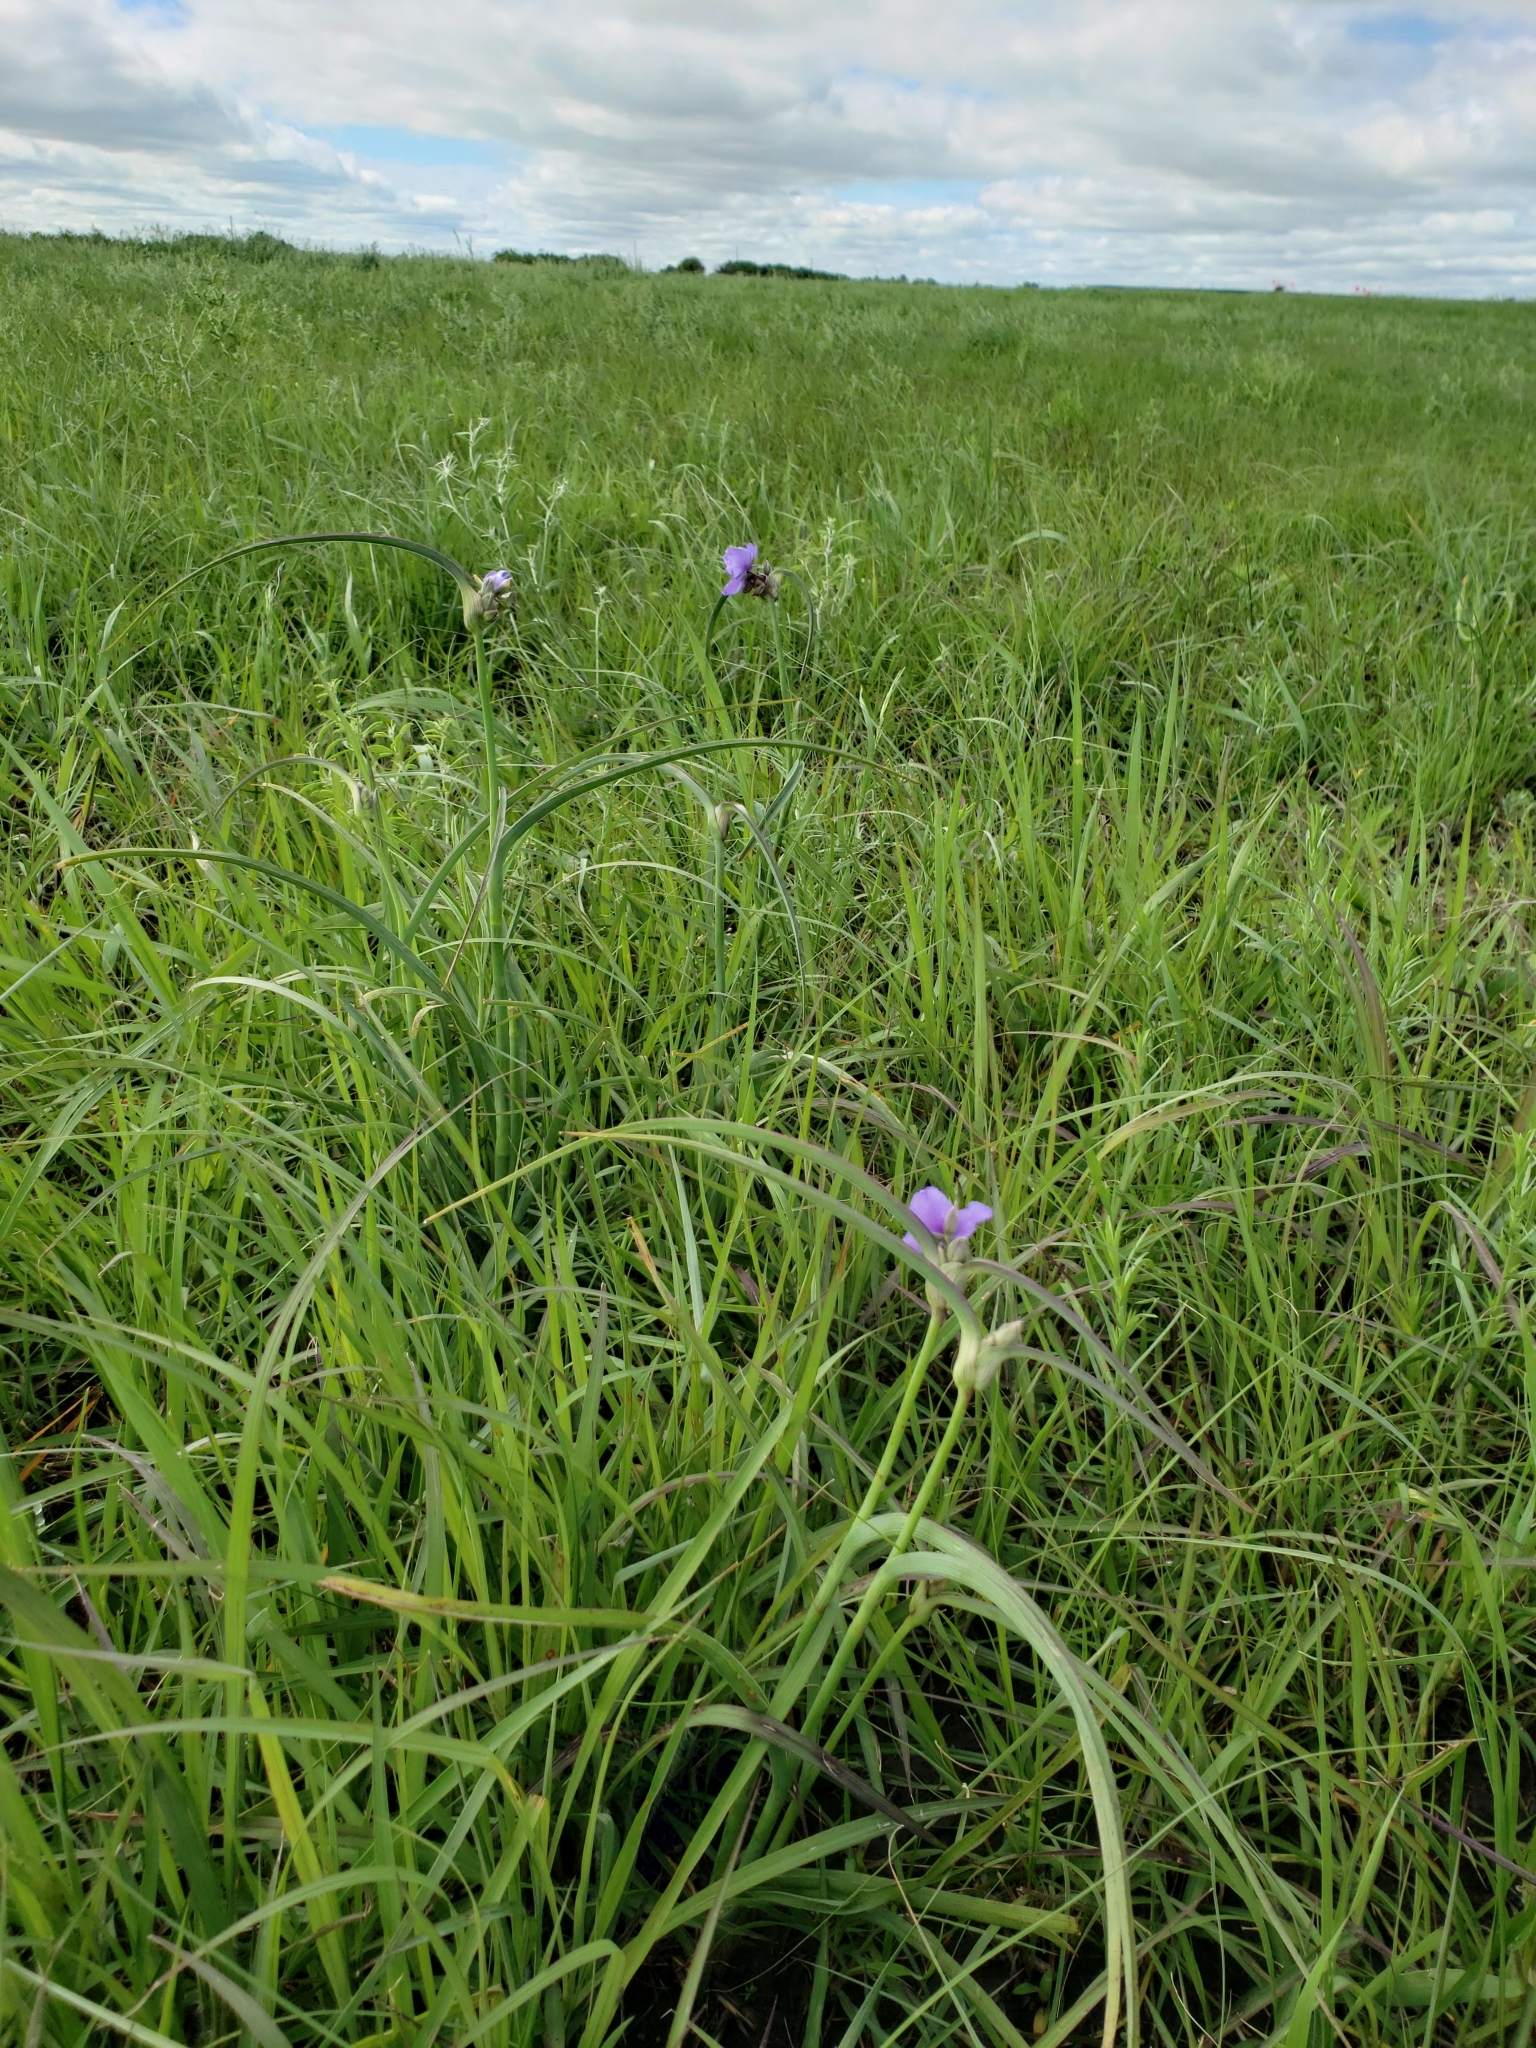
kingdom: Plantae
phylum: Tracheophyta
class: Liliopsida
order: Commelinales
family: Commelinaceae
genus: Tradescantia
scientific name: Tradescantia ohiensis
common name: Ohio spiderwort
